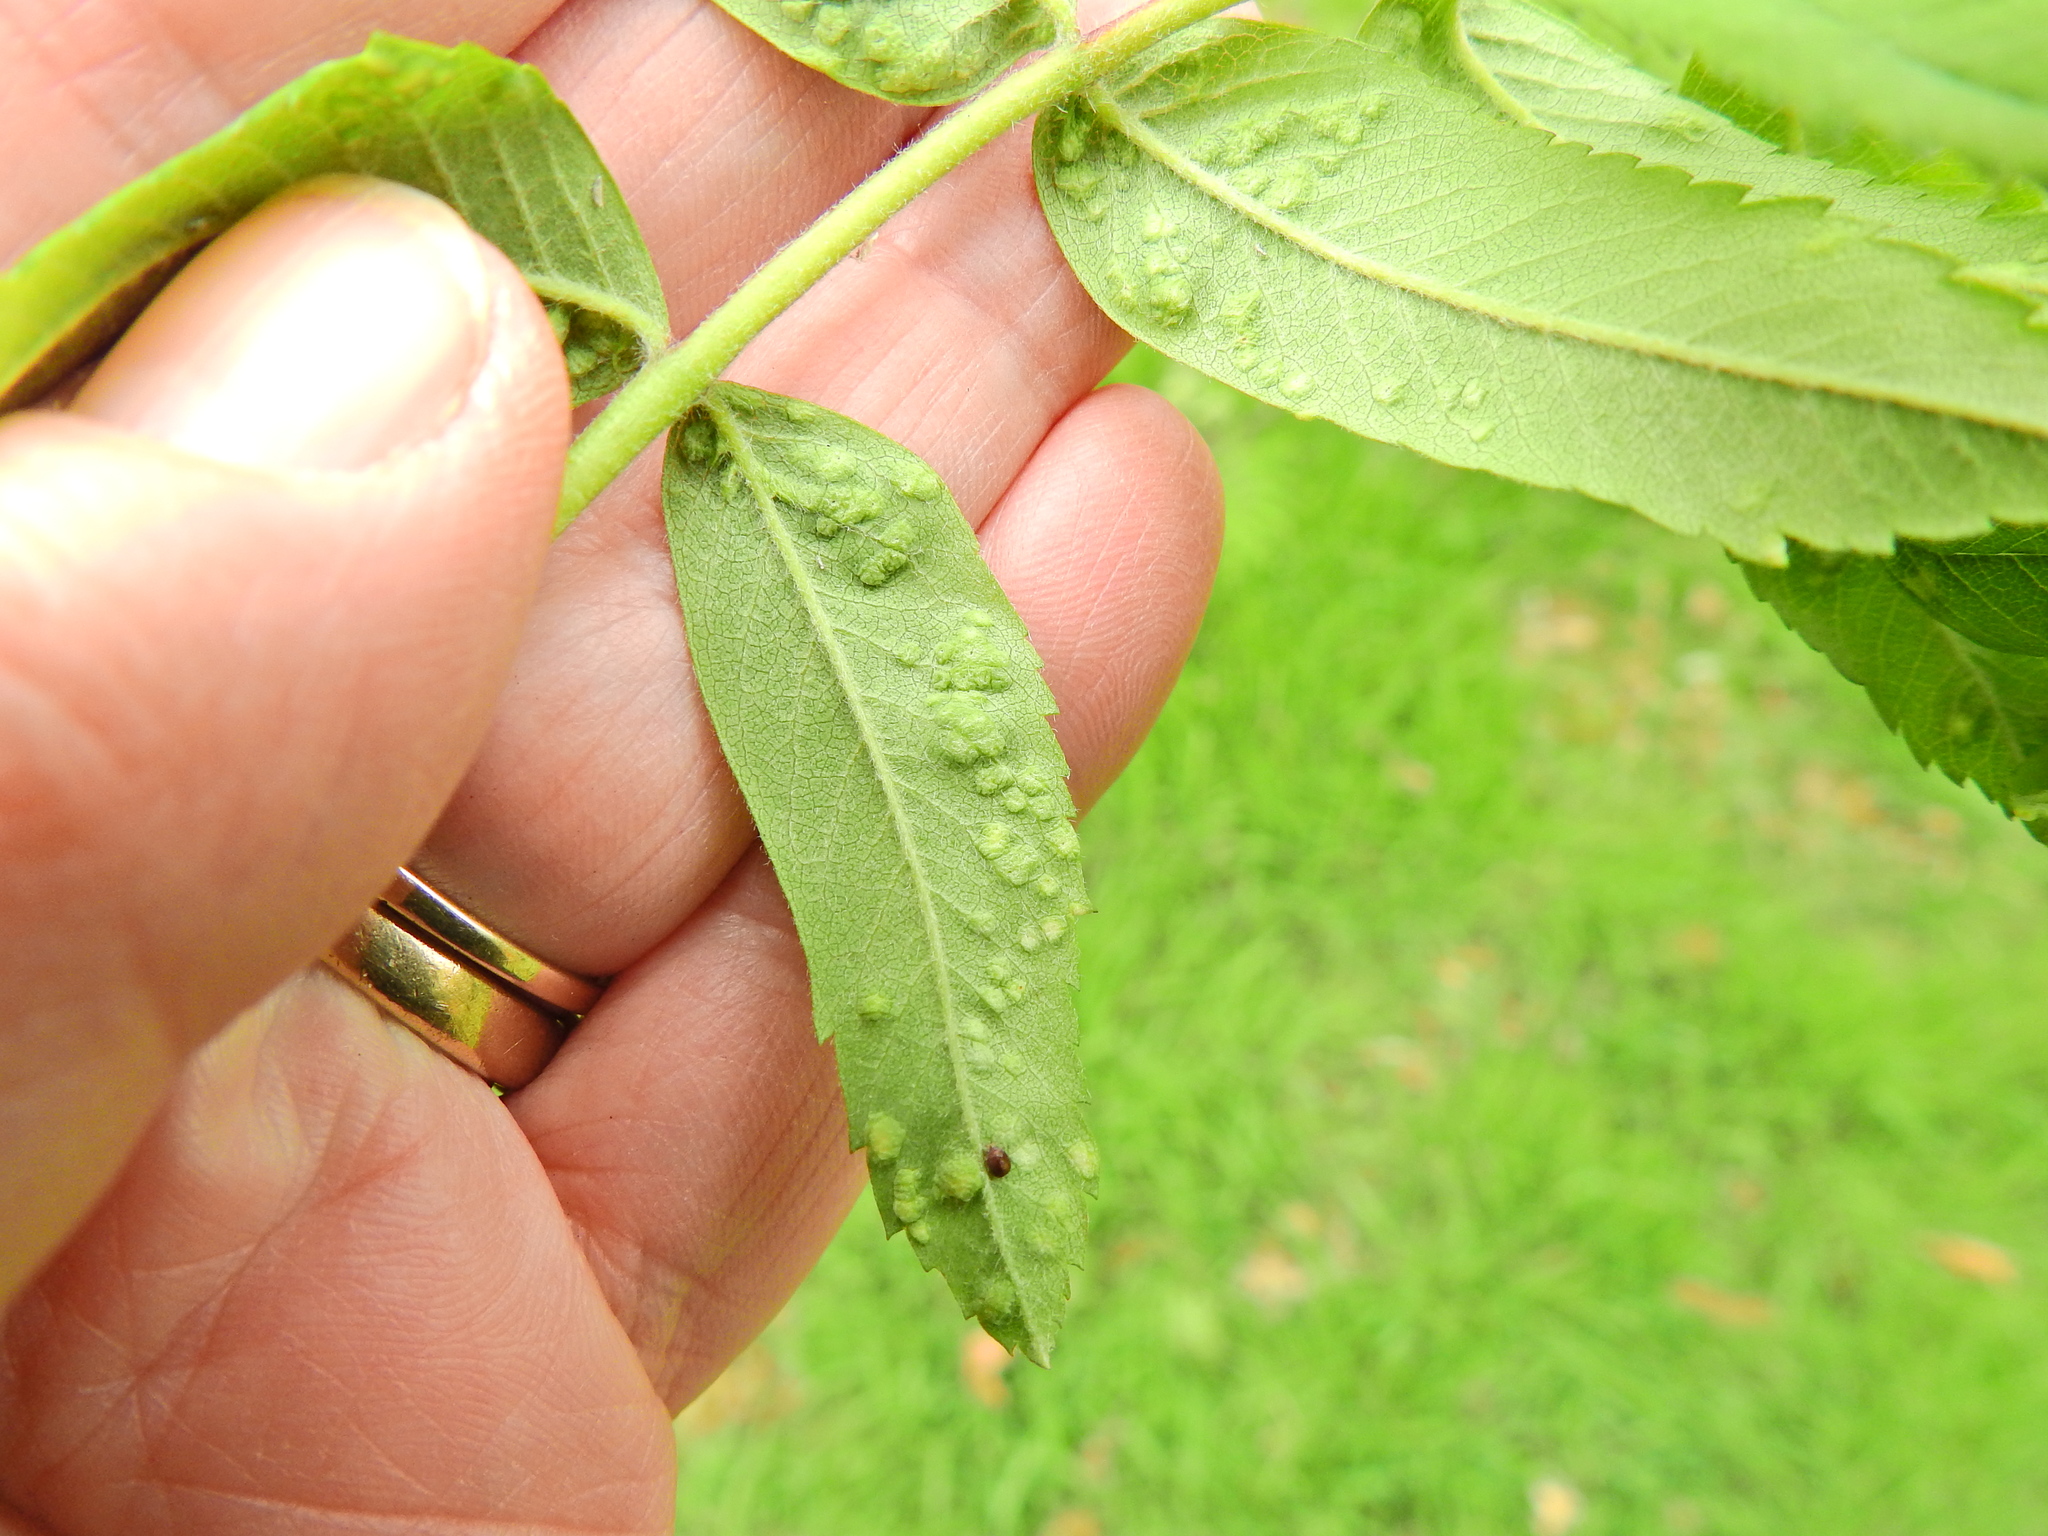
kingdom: Animalia
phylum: Arthropoda
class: Arachnida
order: Trombidiformes
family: Eriophyidae
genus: Eriophyes
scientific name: Eriophyes pyri
